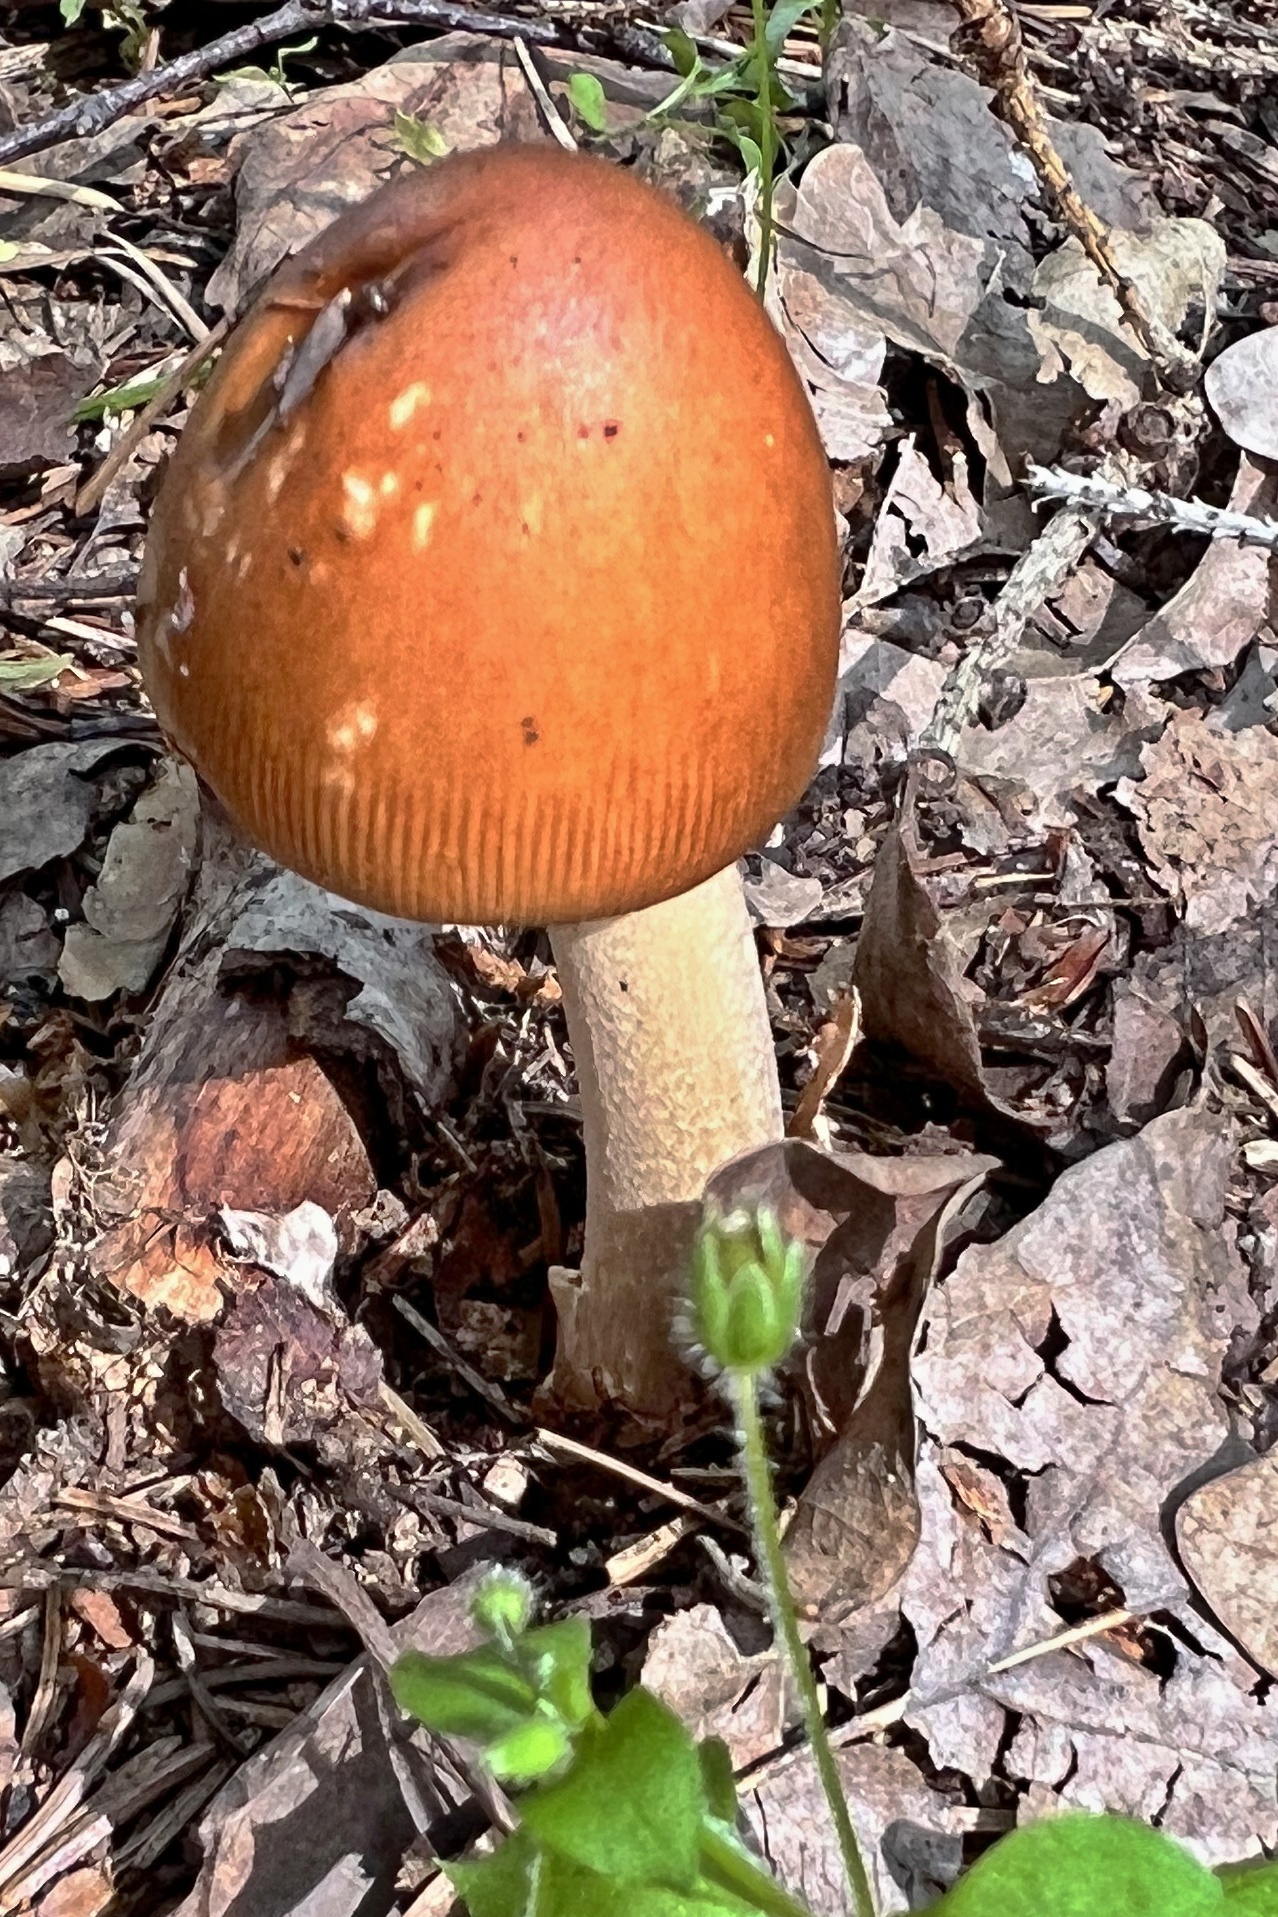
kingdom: Fungi
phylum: Basidiomycota
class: Agaricomycetes
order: Agaricales
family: Amanitaceae
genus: Amanita
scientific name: Amanita fulva
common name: Tawny grisette
